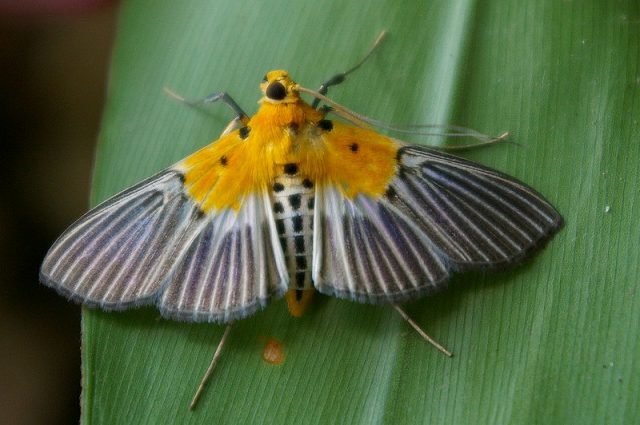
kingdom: Animalia
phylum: Arthropoda
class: Insecta
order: Lepidoptera
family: Crambidae
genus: Nevrina
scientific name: Nevrina procopia
